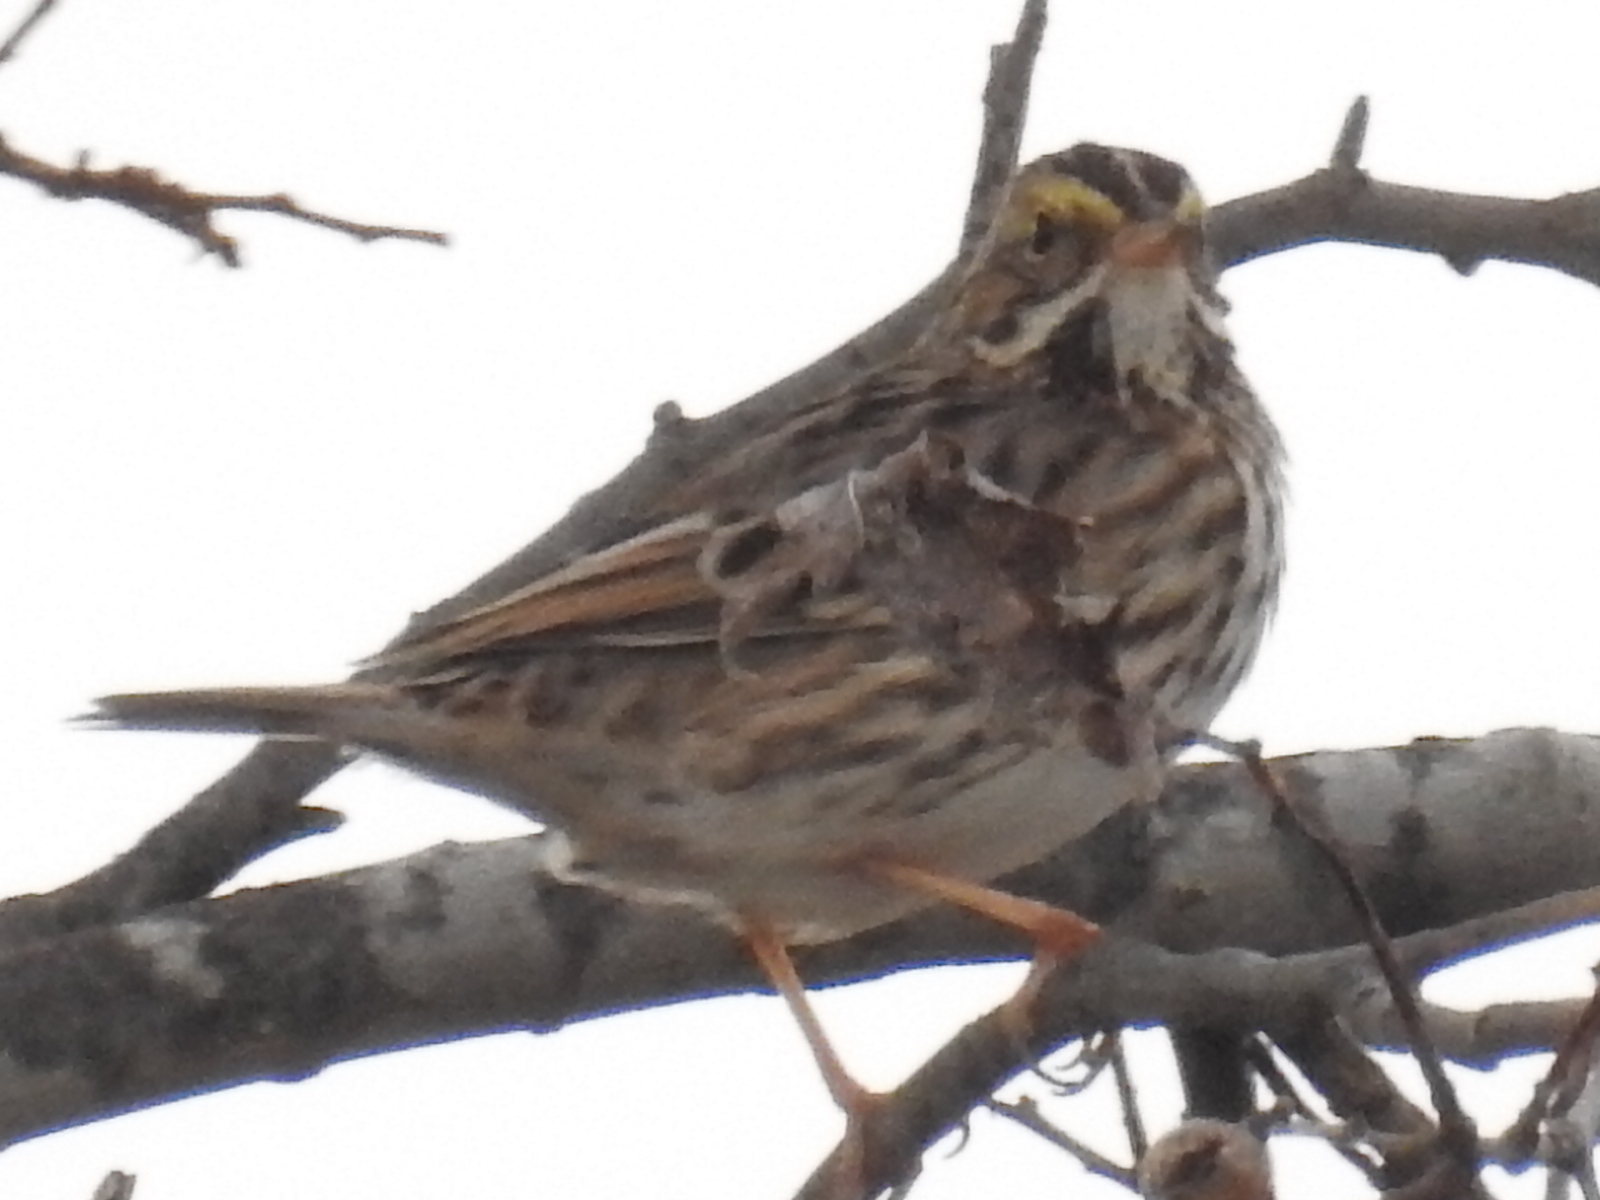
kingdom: Animalia
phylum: Chordata
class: Aves
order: Passeriformes
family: Passerellidae
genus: Passerculus
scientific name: Passerculus sandwichensis
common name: Savannah sparrow
